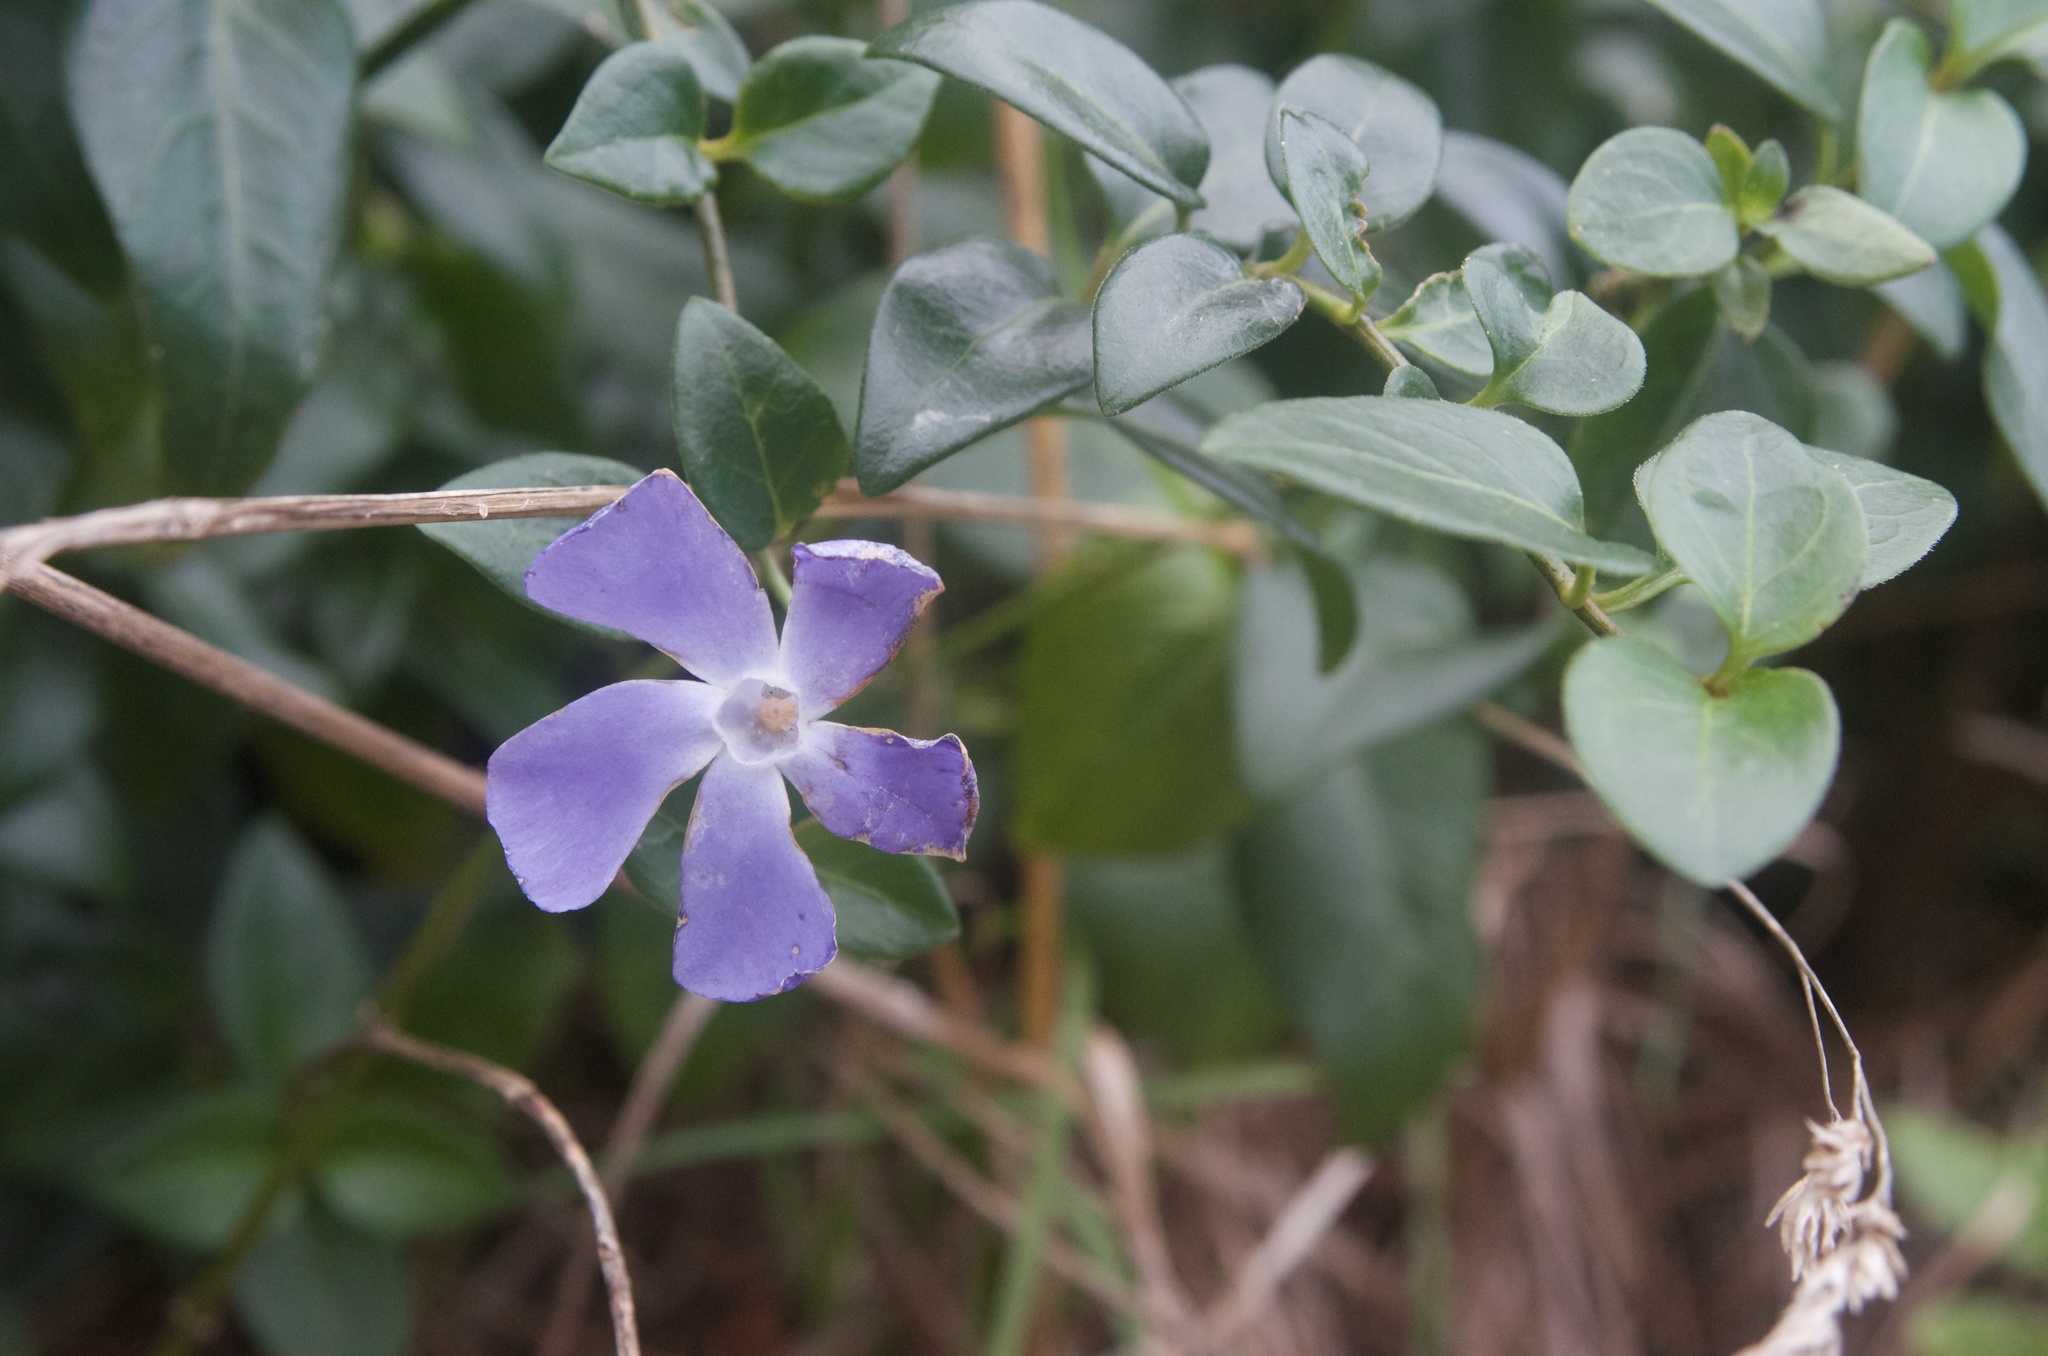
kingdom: Plantae
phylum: Tracheophyta
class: Magnoliopsida
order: Gentianales
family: Apocynaceae
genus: Vinca
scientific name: Vinca major
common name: Greater periwinkle
